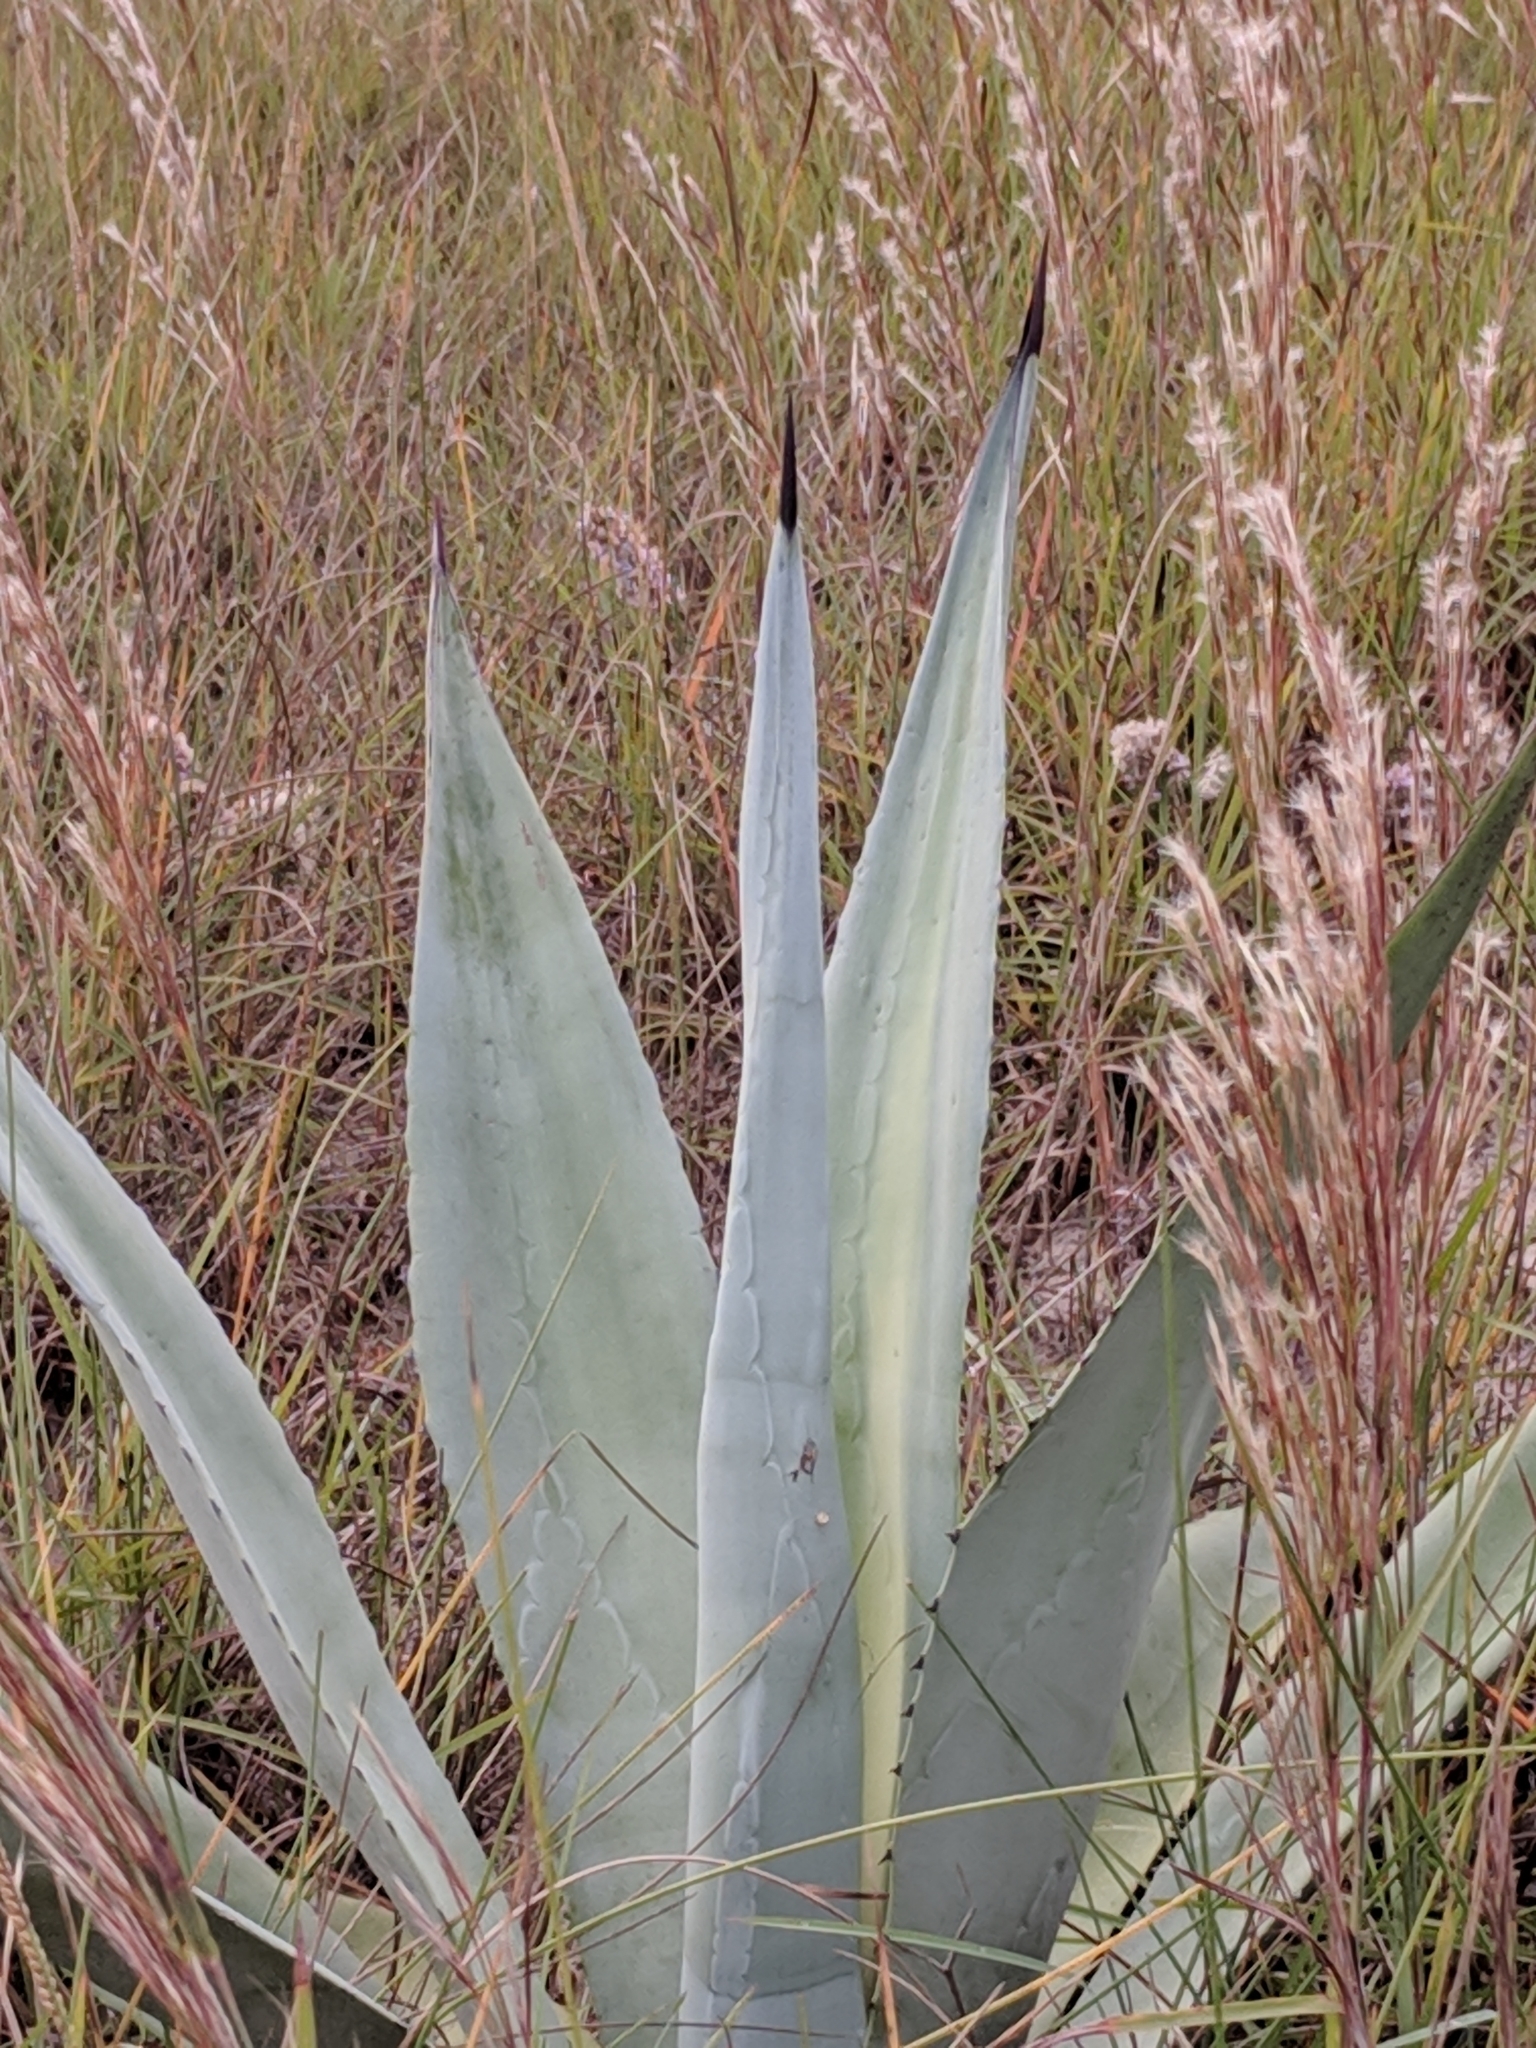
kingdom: Plantae
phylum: Tracheophyta
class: Liliopsida
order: Asparagales
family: Asparagaceae
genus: Agave
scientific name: Agave americana
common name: Centuryplant
